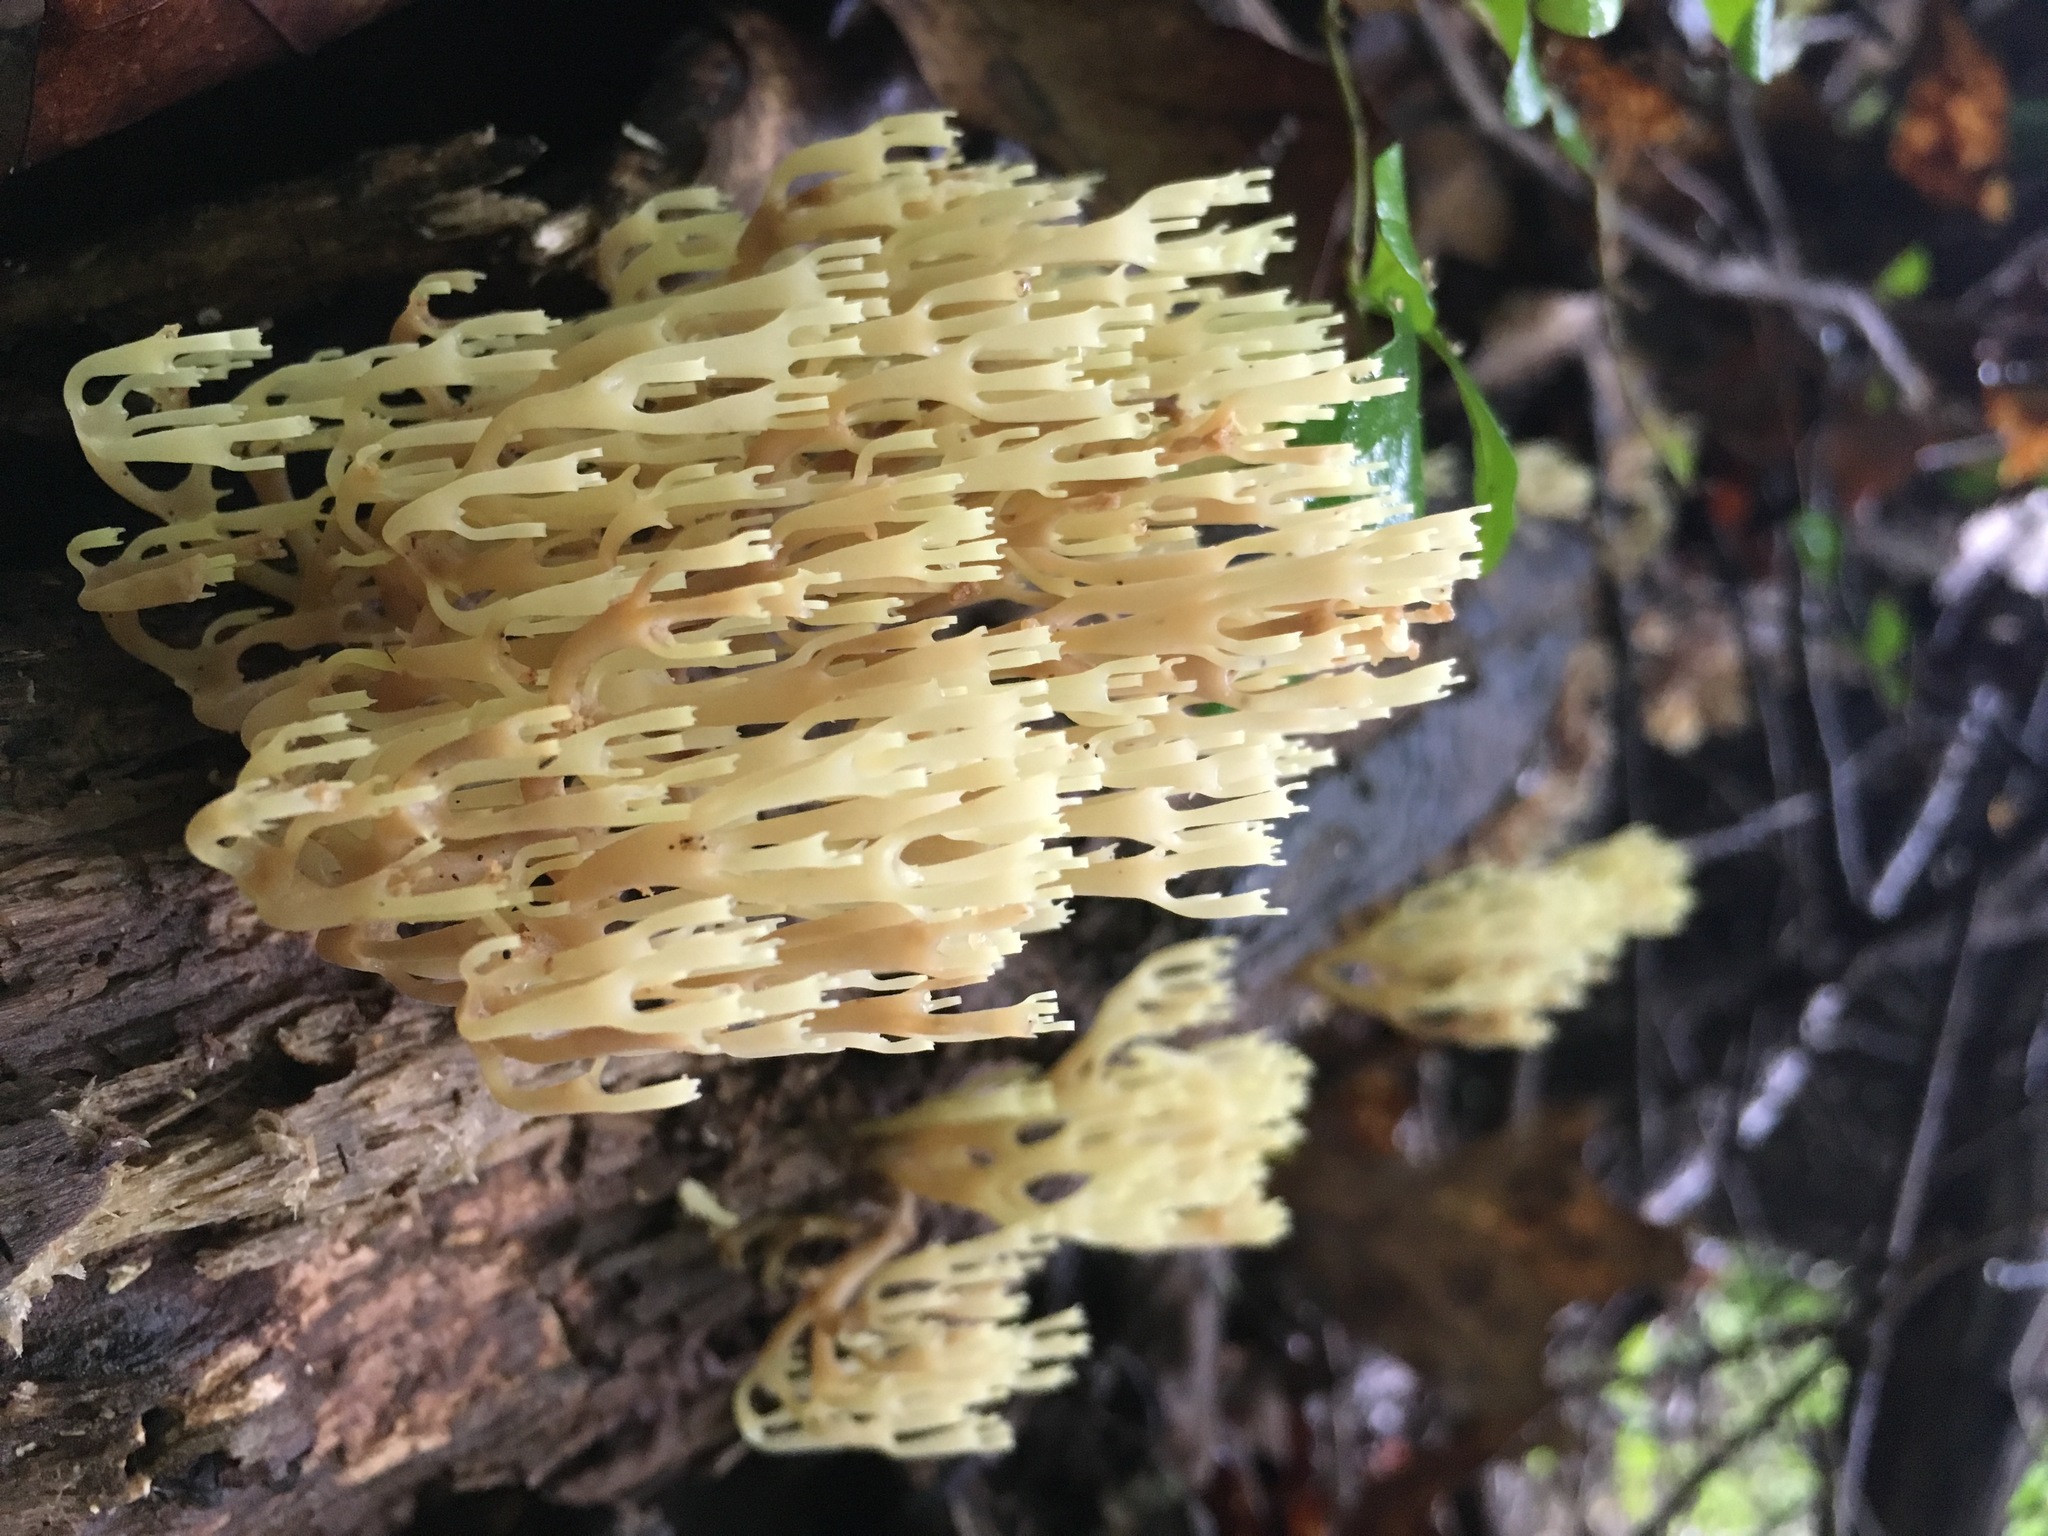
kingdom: Fungi
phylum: Basidiomycota
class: Agaricomycetes
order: Russulales
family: Auriscalpiaceae
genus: Artomyces
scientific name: Artomyces pyxidatus
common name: Crown-tipped coral fungus
